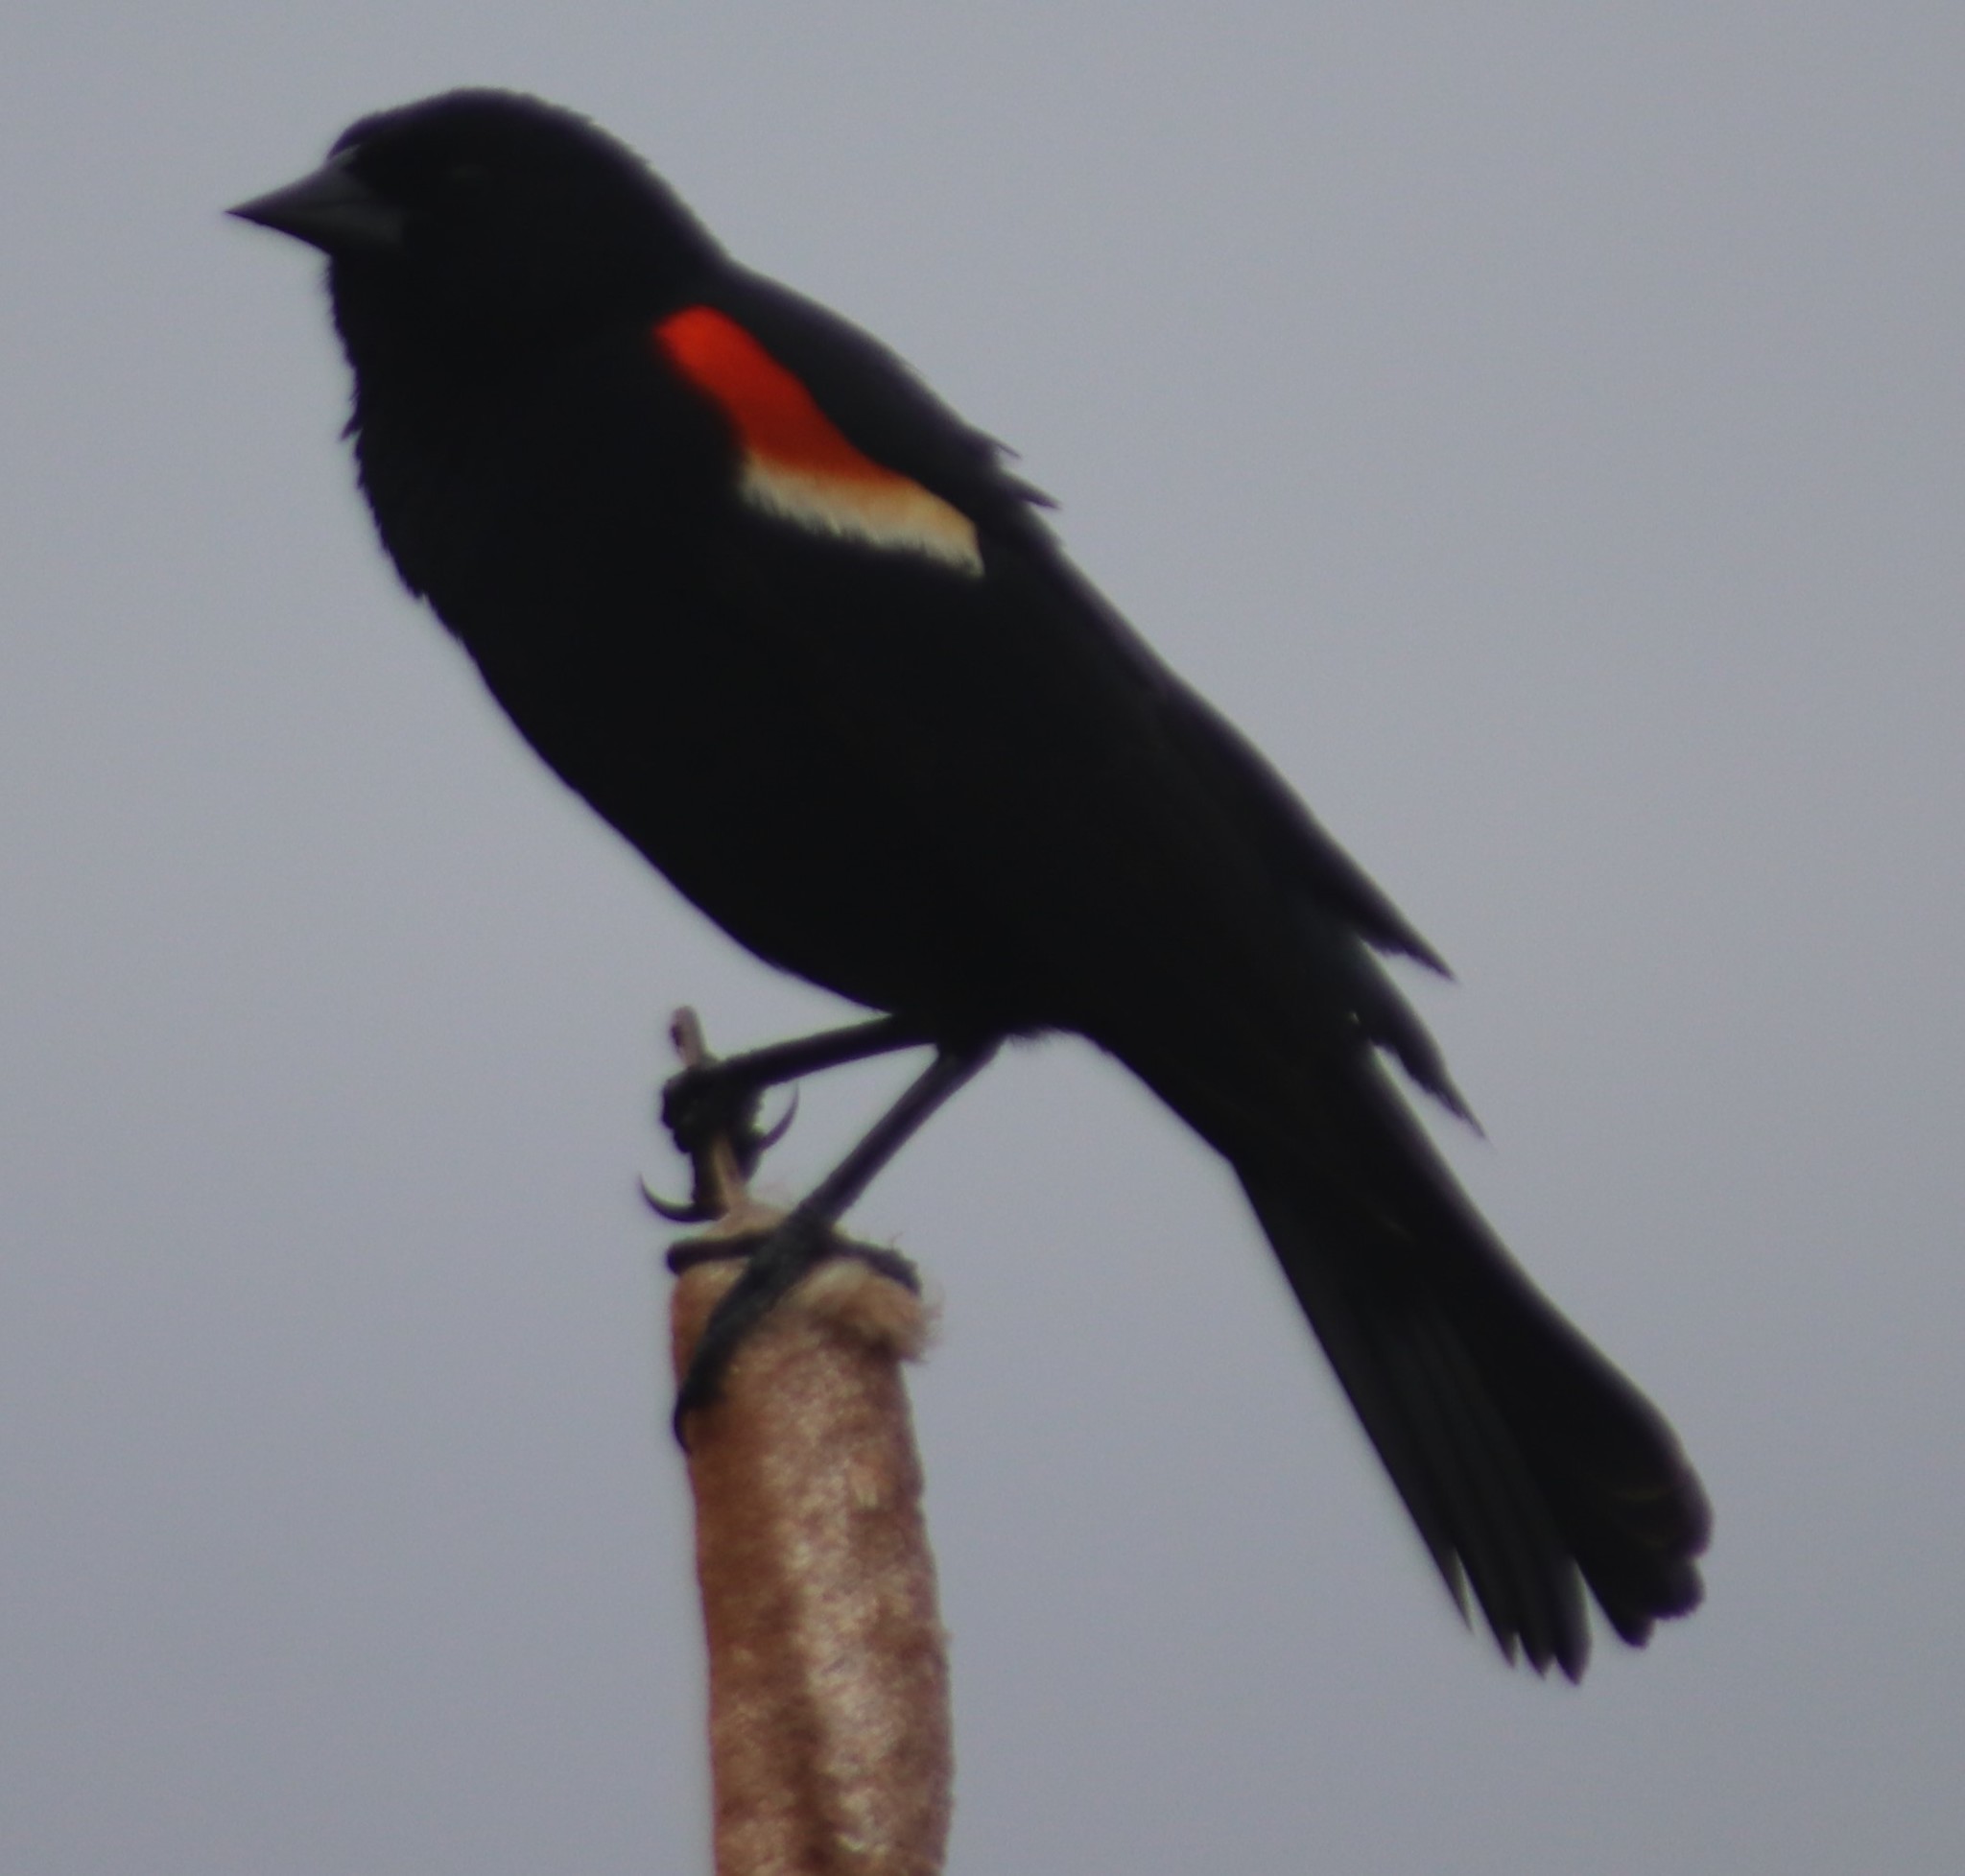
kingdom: Animalia
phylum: Chordata
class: Aves
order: Passeriformes
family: Icteridae
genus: Agelaius
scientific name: Agelaius phoeniceus
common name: Red-winged blackbird
